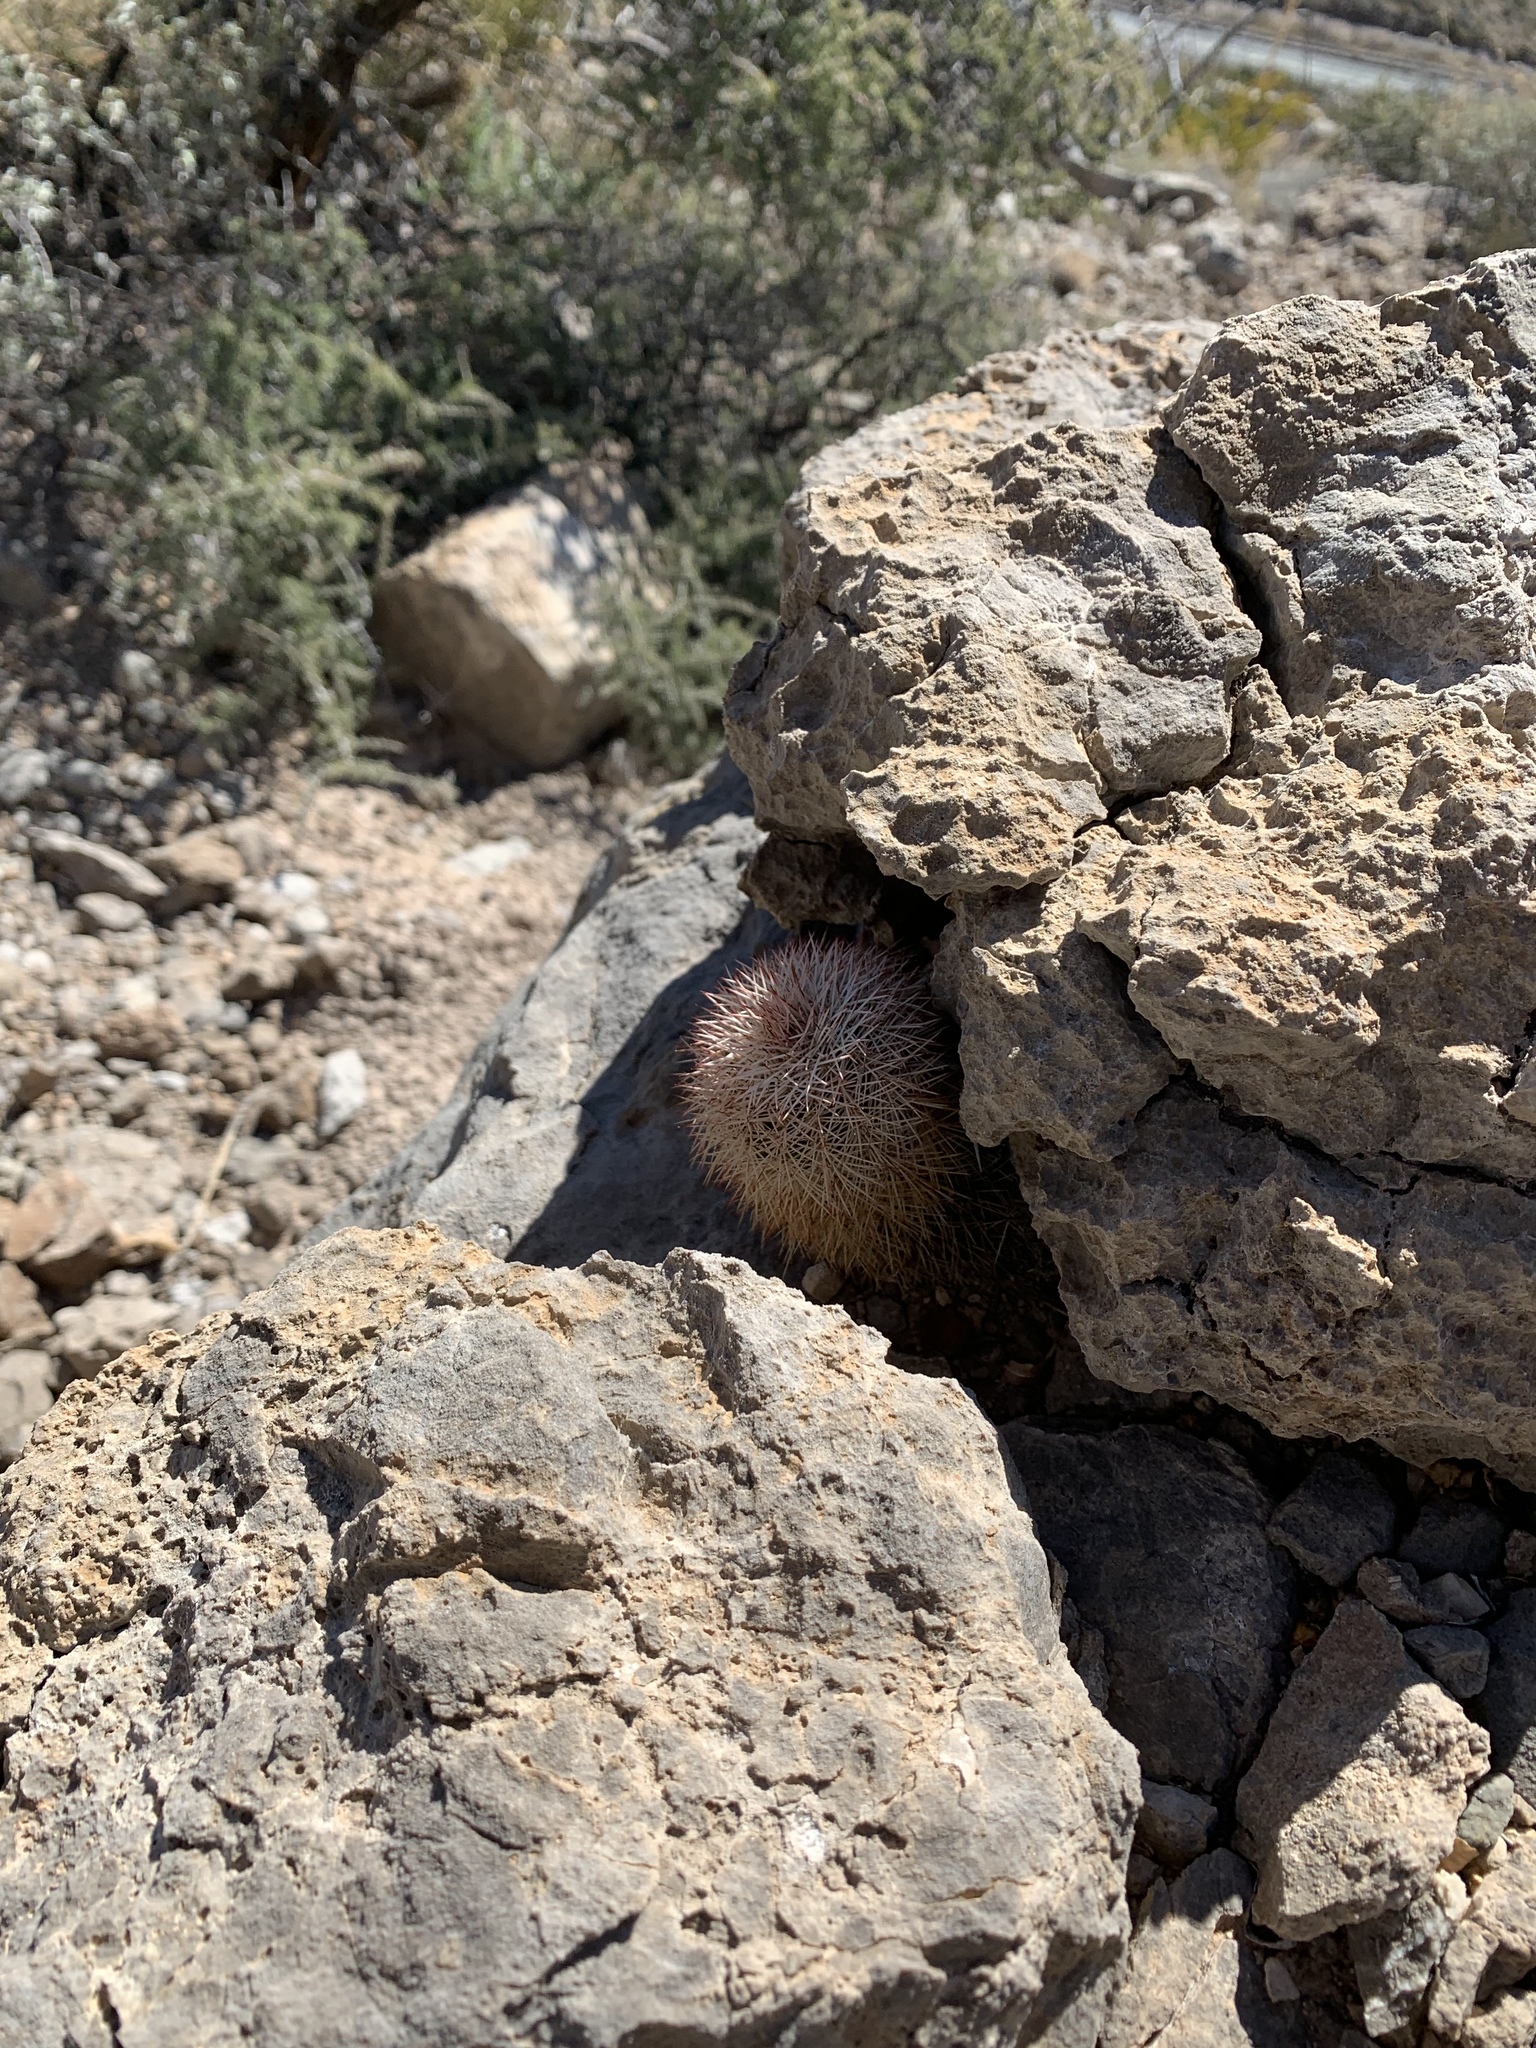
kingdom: Plantae
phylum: Tracheophyta
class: Magnoliopsida
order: Caryophyllales
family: Cactaceae
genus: Echinocereus
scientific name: Echinocereus dasyacanthus
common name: Spiny hedgehog cactus
